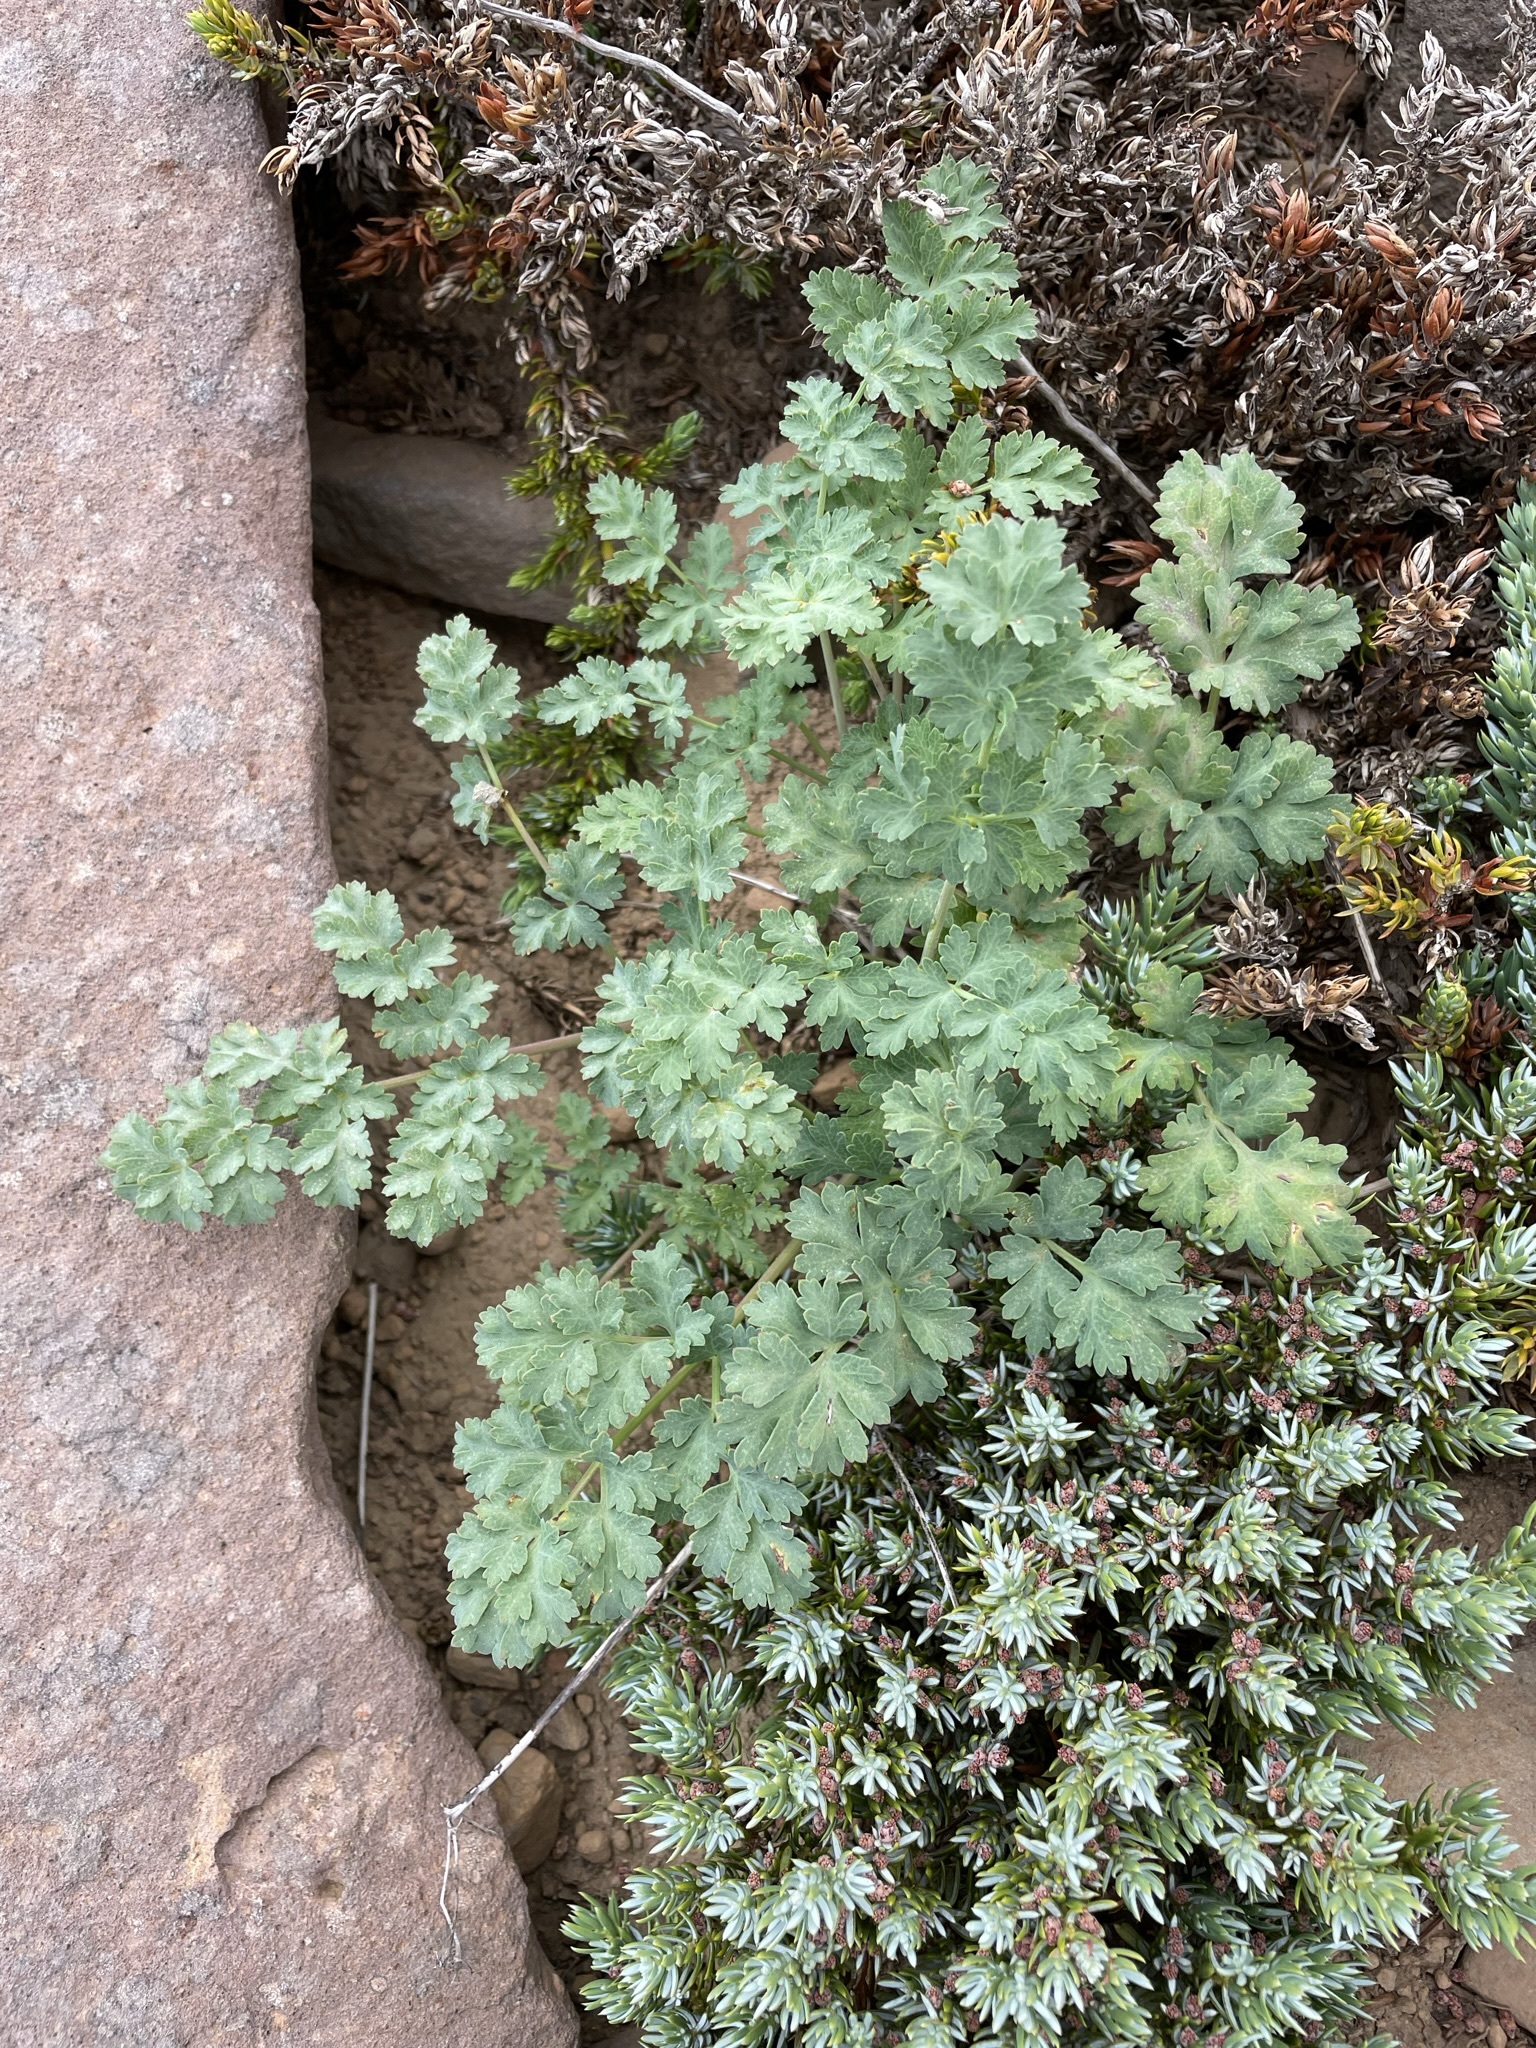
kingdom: Plantae
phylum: Tracheophyta
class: Magnoliopsida
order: Apiales
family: Apiaceae
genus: Lomatium
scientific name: Lomatium martindalei
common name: Cascade desert-parsley
